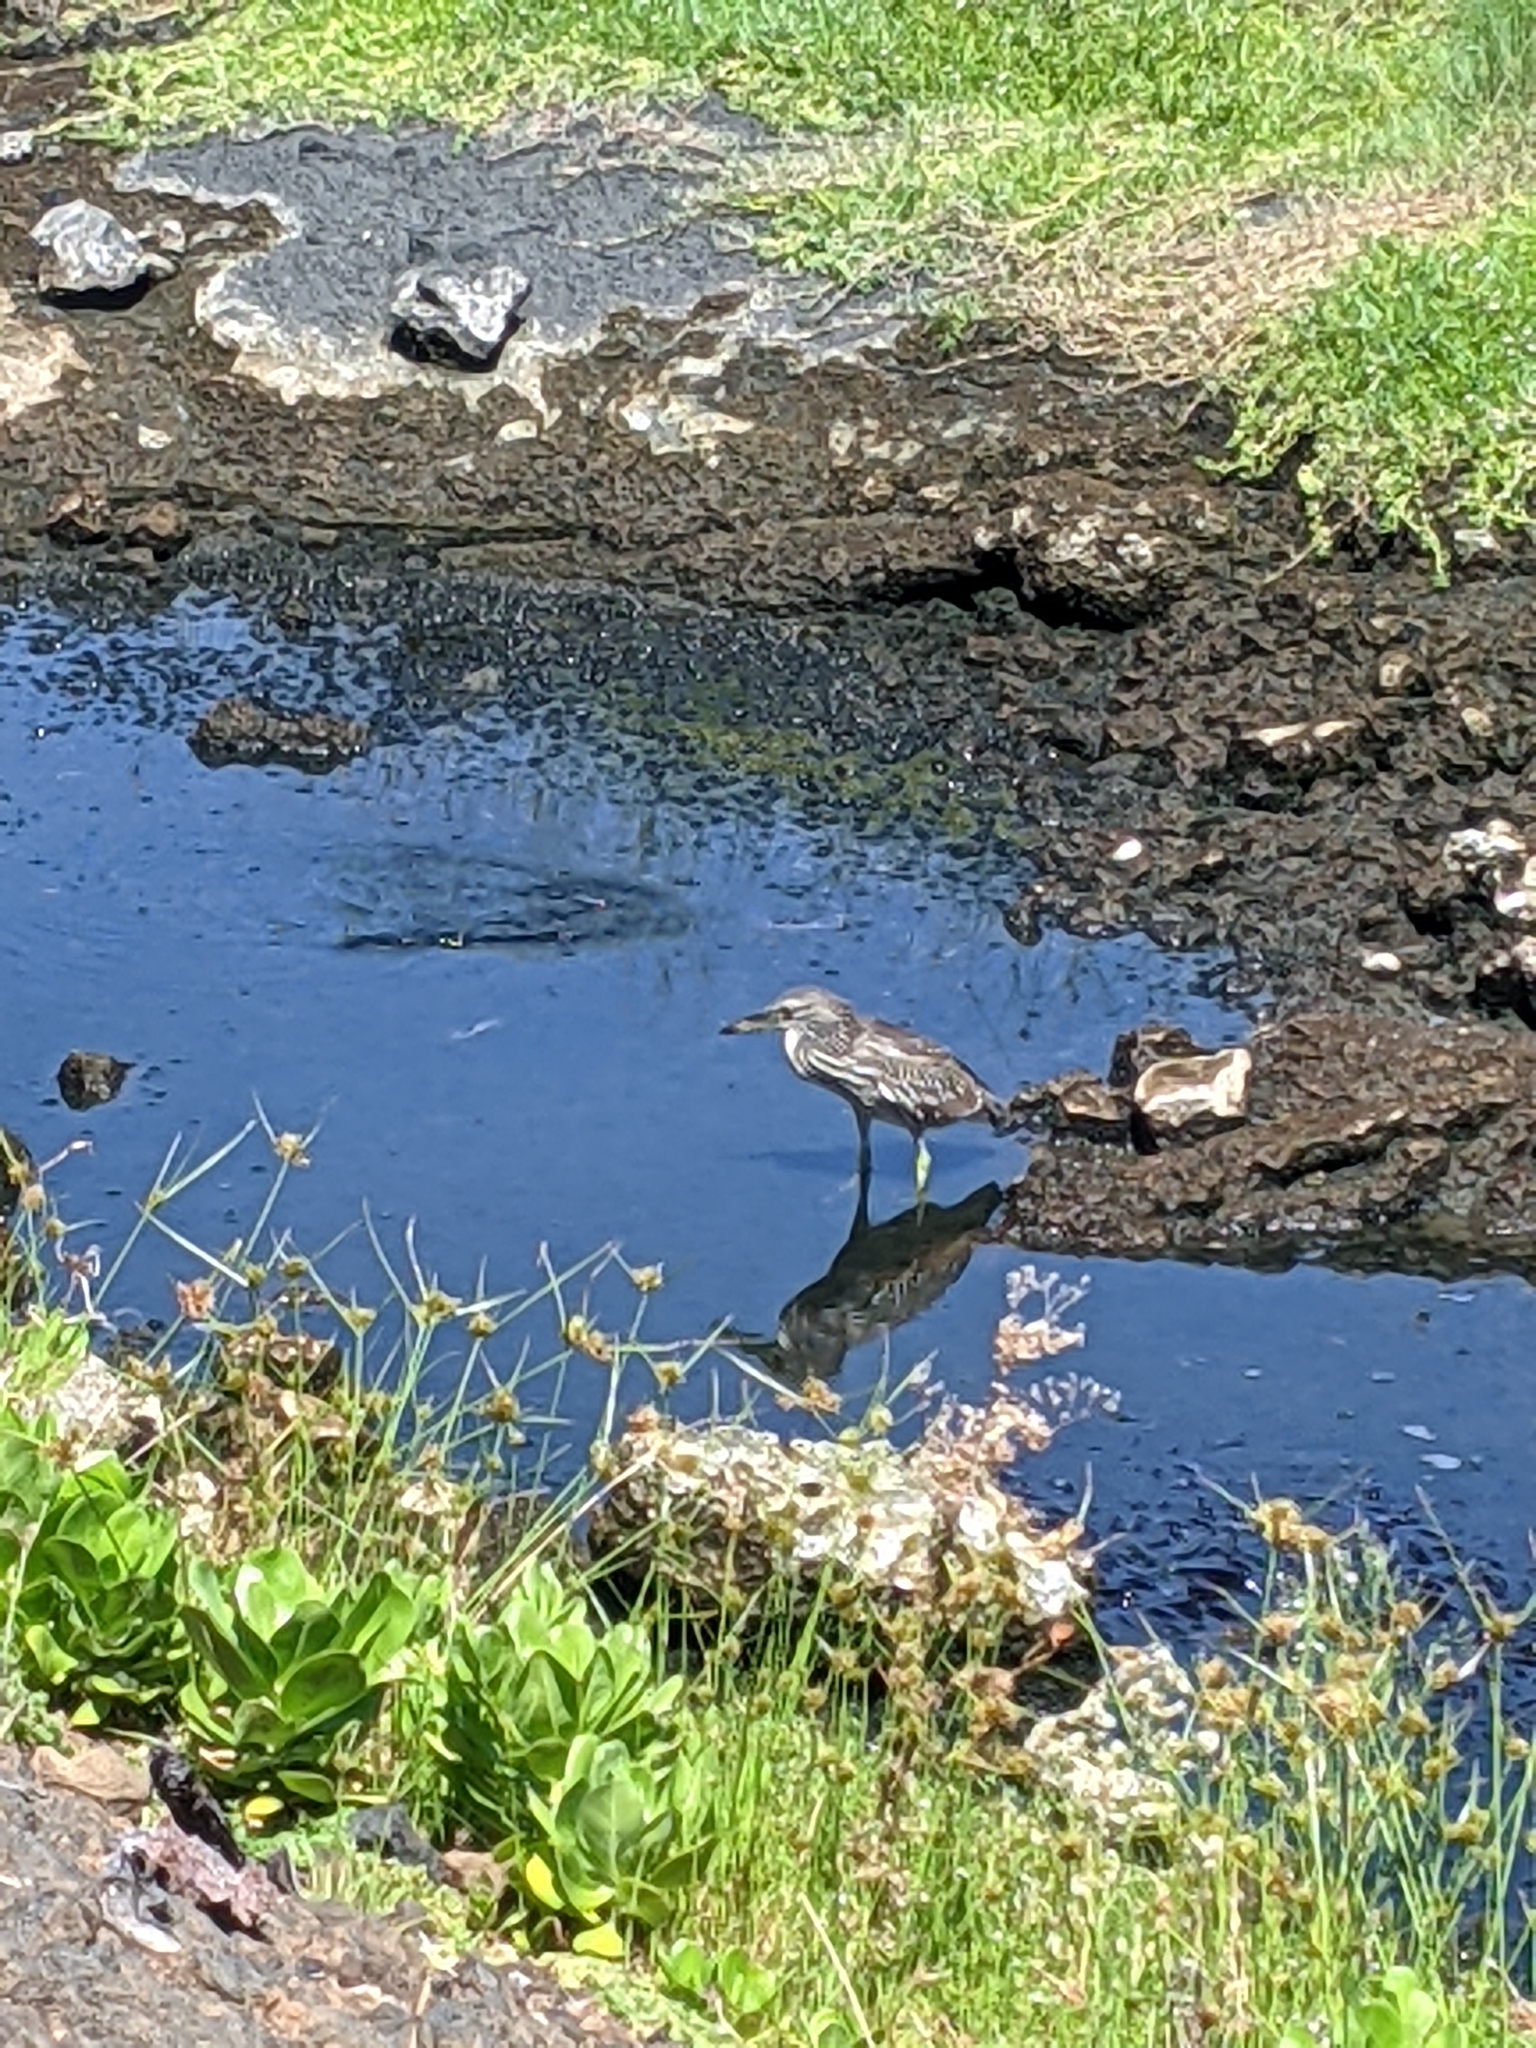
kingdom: Animalia
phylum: Chordata
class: Aves
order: Pelecaniformes
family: Ardeidae
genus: Nycticorax
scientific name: Nycticorax nycticorax
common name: Black-crowned night heron
